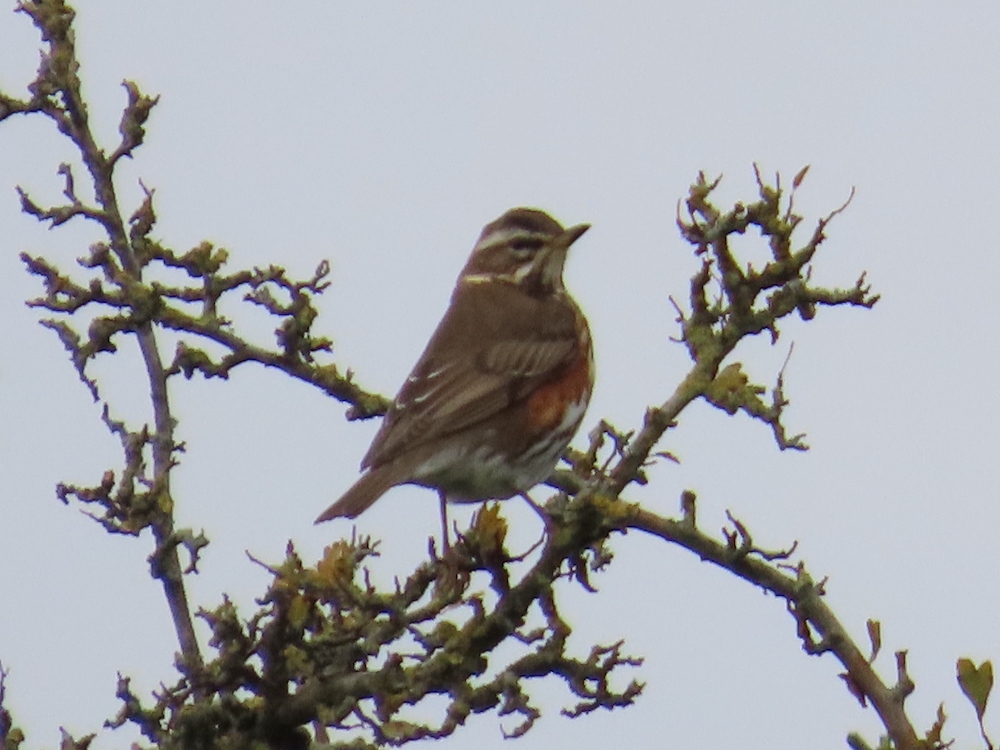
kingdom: Animalia
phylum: Chordata
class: Aves
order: Passeriformes
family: Turdidae
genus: Turdus
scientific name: Turdus iliacus
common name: Redwing
